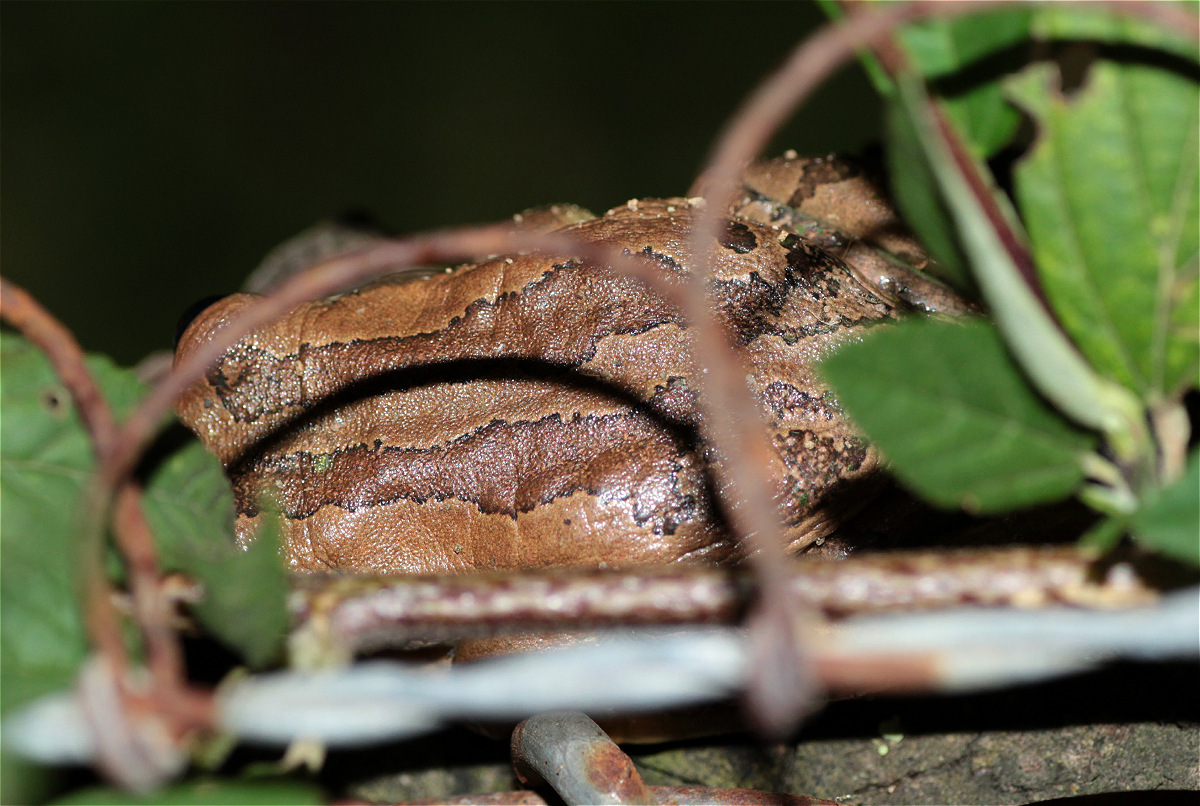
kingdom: Animalia
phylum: Chordata
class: Amphibia
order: Anura
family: Hemiphractidae
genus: Gastrotheca
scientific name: Gastrotheca cuencana
